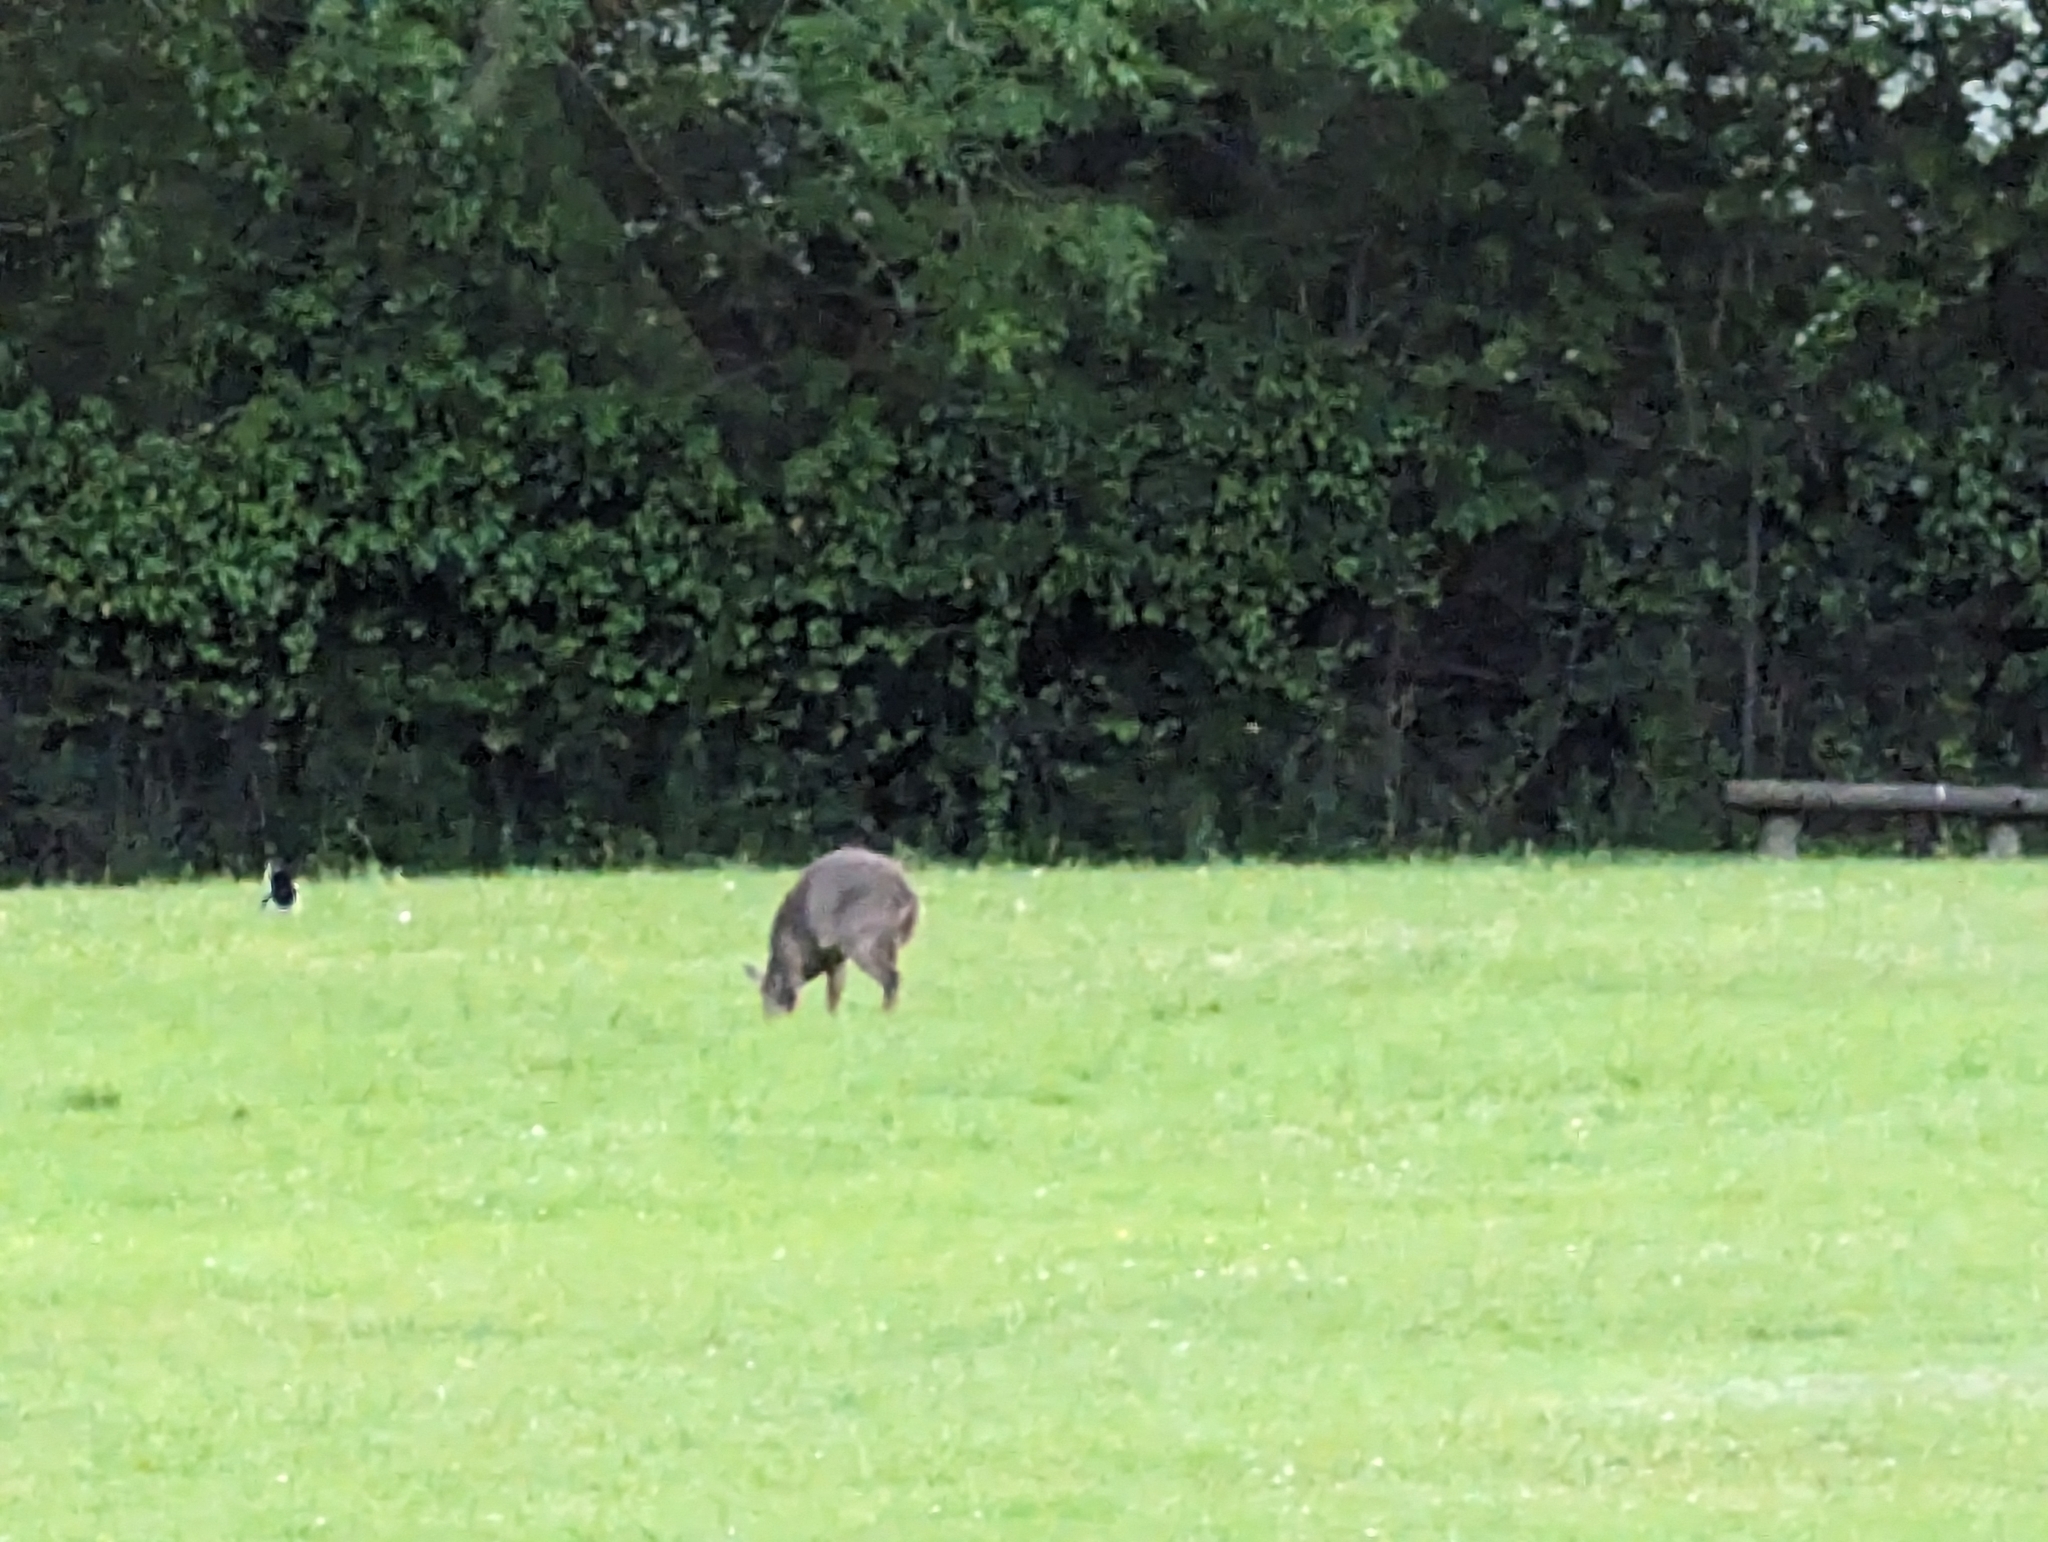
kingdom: Animalia
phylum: Chordata
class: Mammalia
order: Artiodactyla
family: Cervidae
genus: Muntiacus
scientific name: Muntiacus reevesi
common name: Reeves' muntjac
